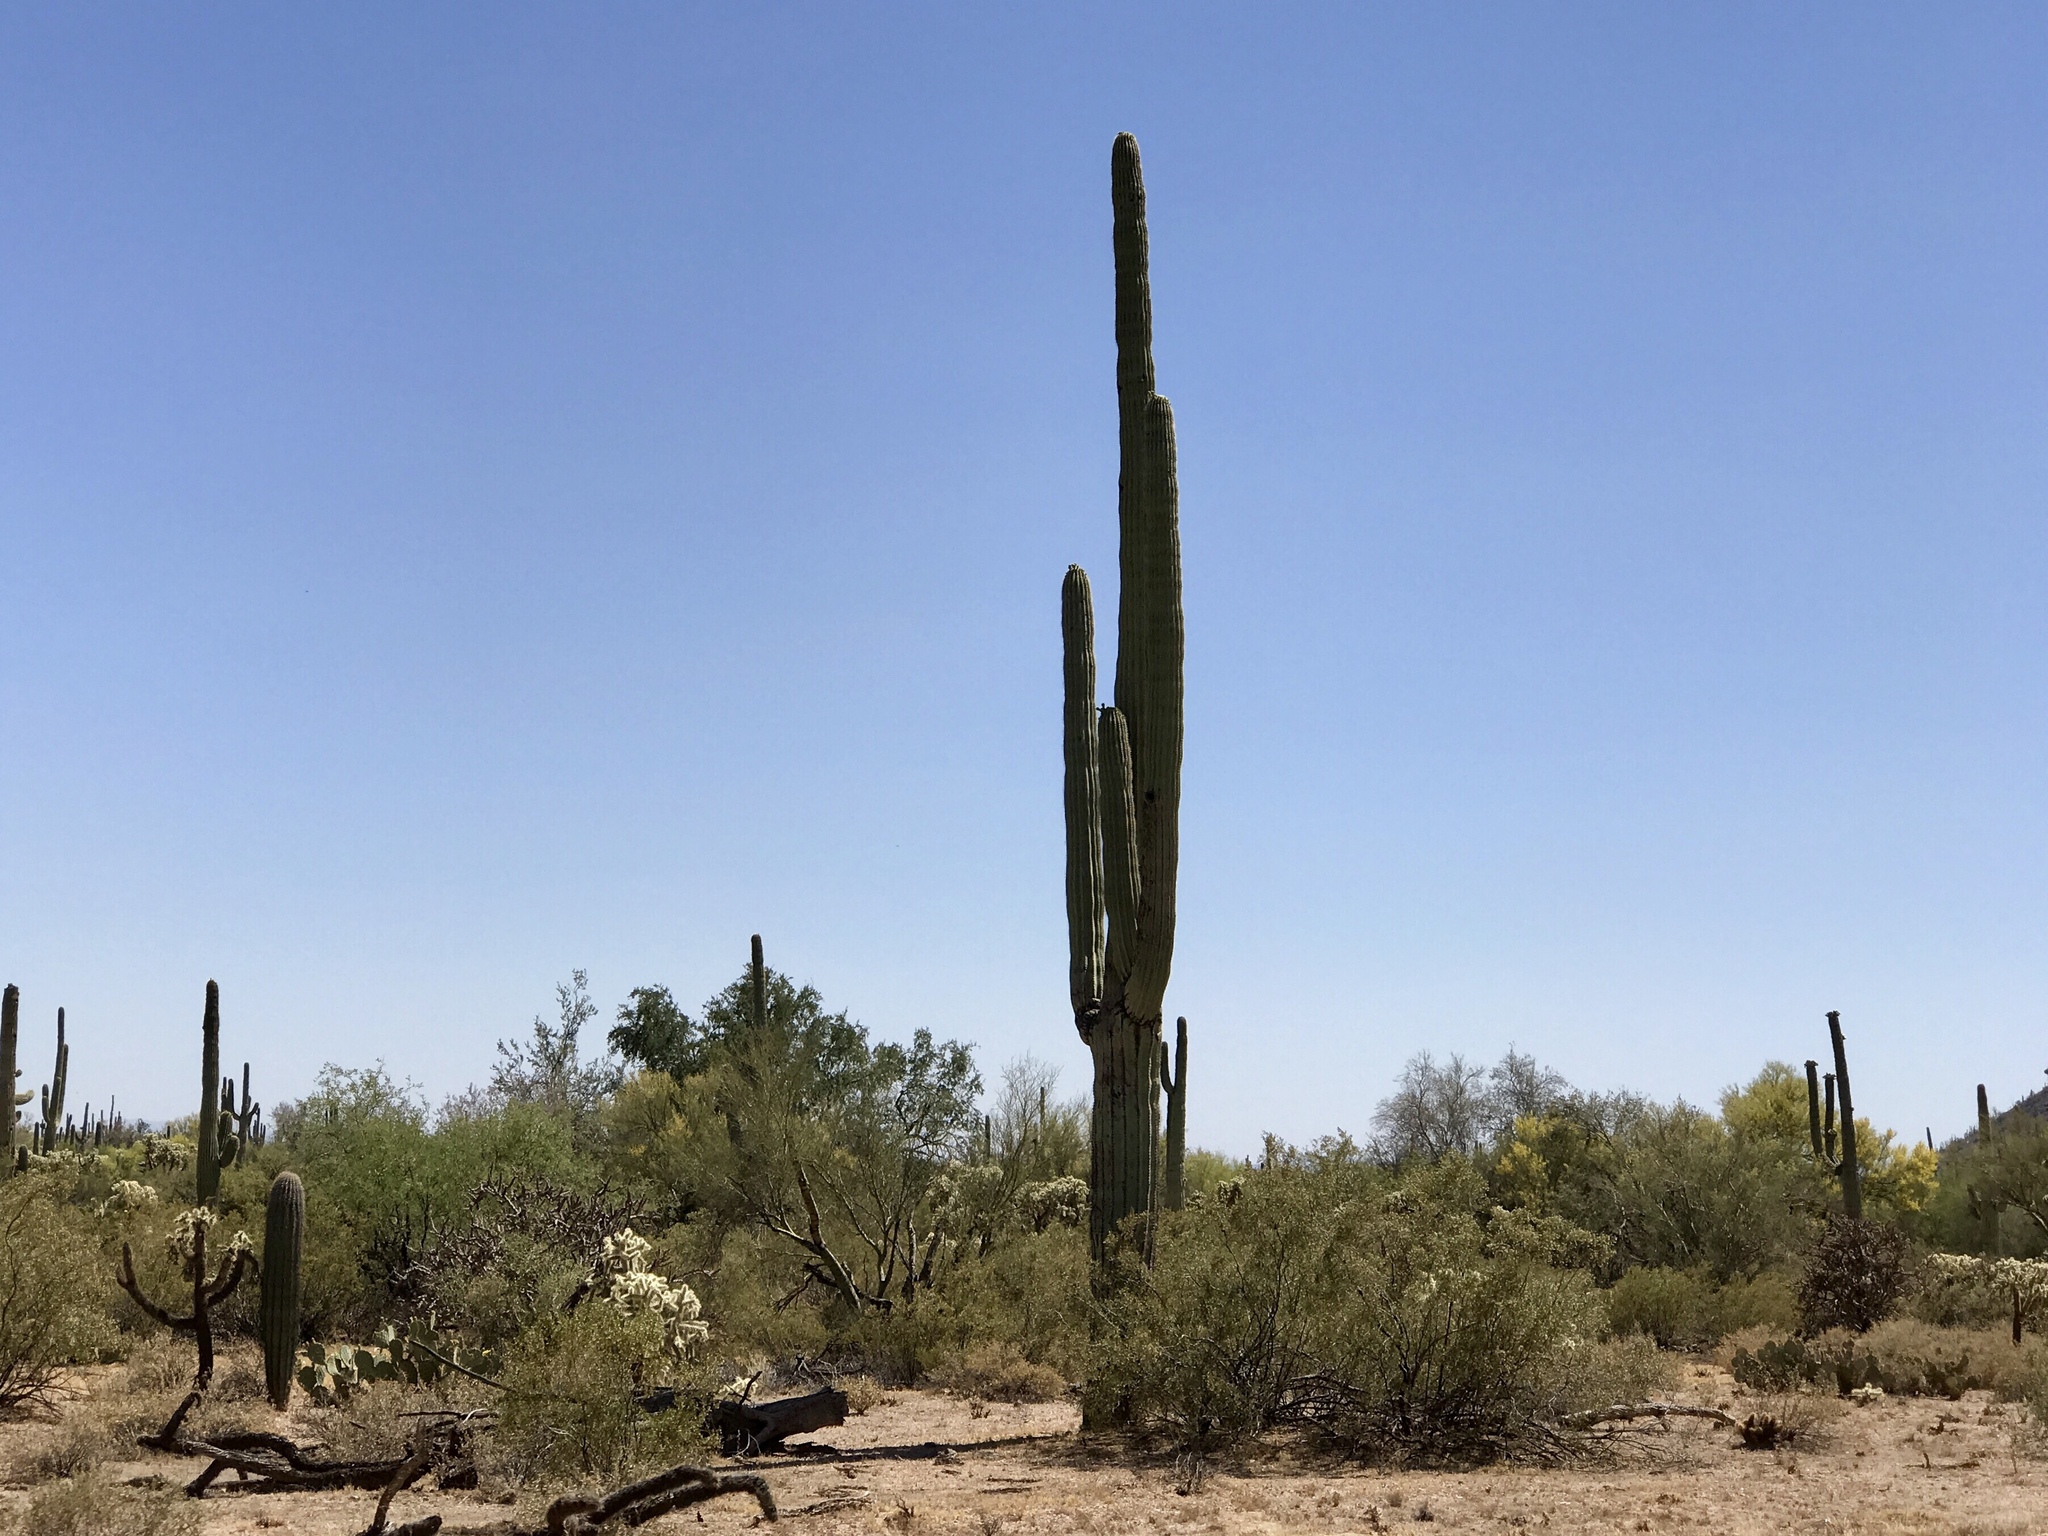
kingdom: Plantae
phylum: Tracheophyta
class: Magnoliopsida
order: Caryophyllales
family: Cactaceae
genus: Carnegiea
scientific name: Carnegiea gigantea
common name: Saguaro
